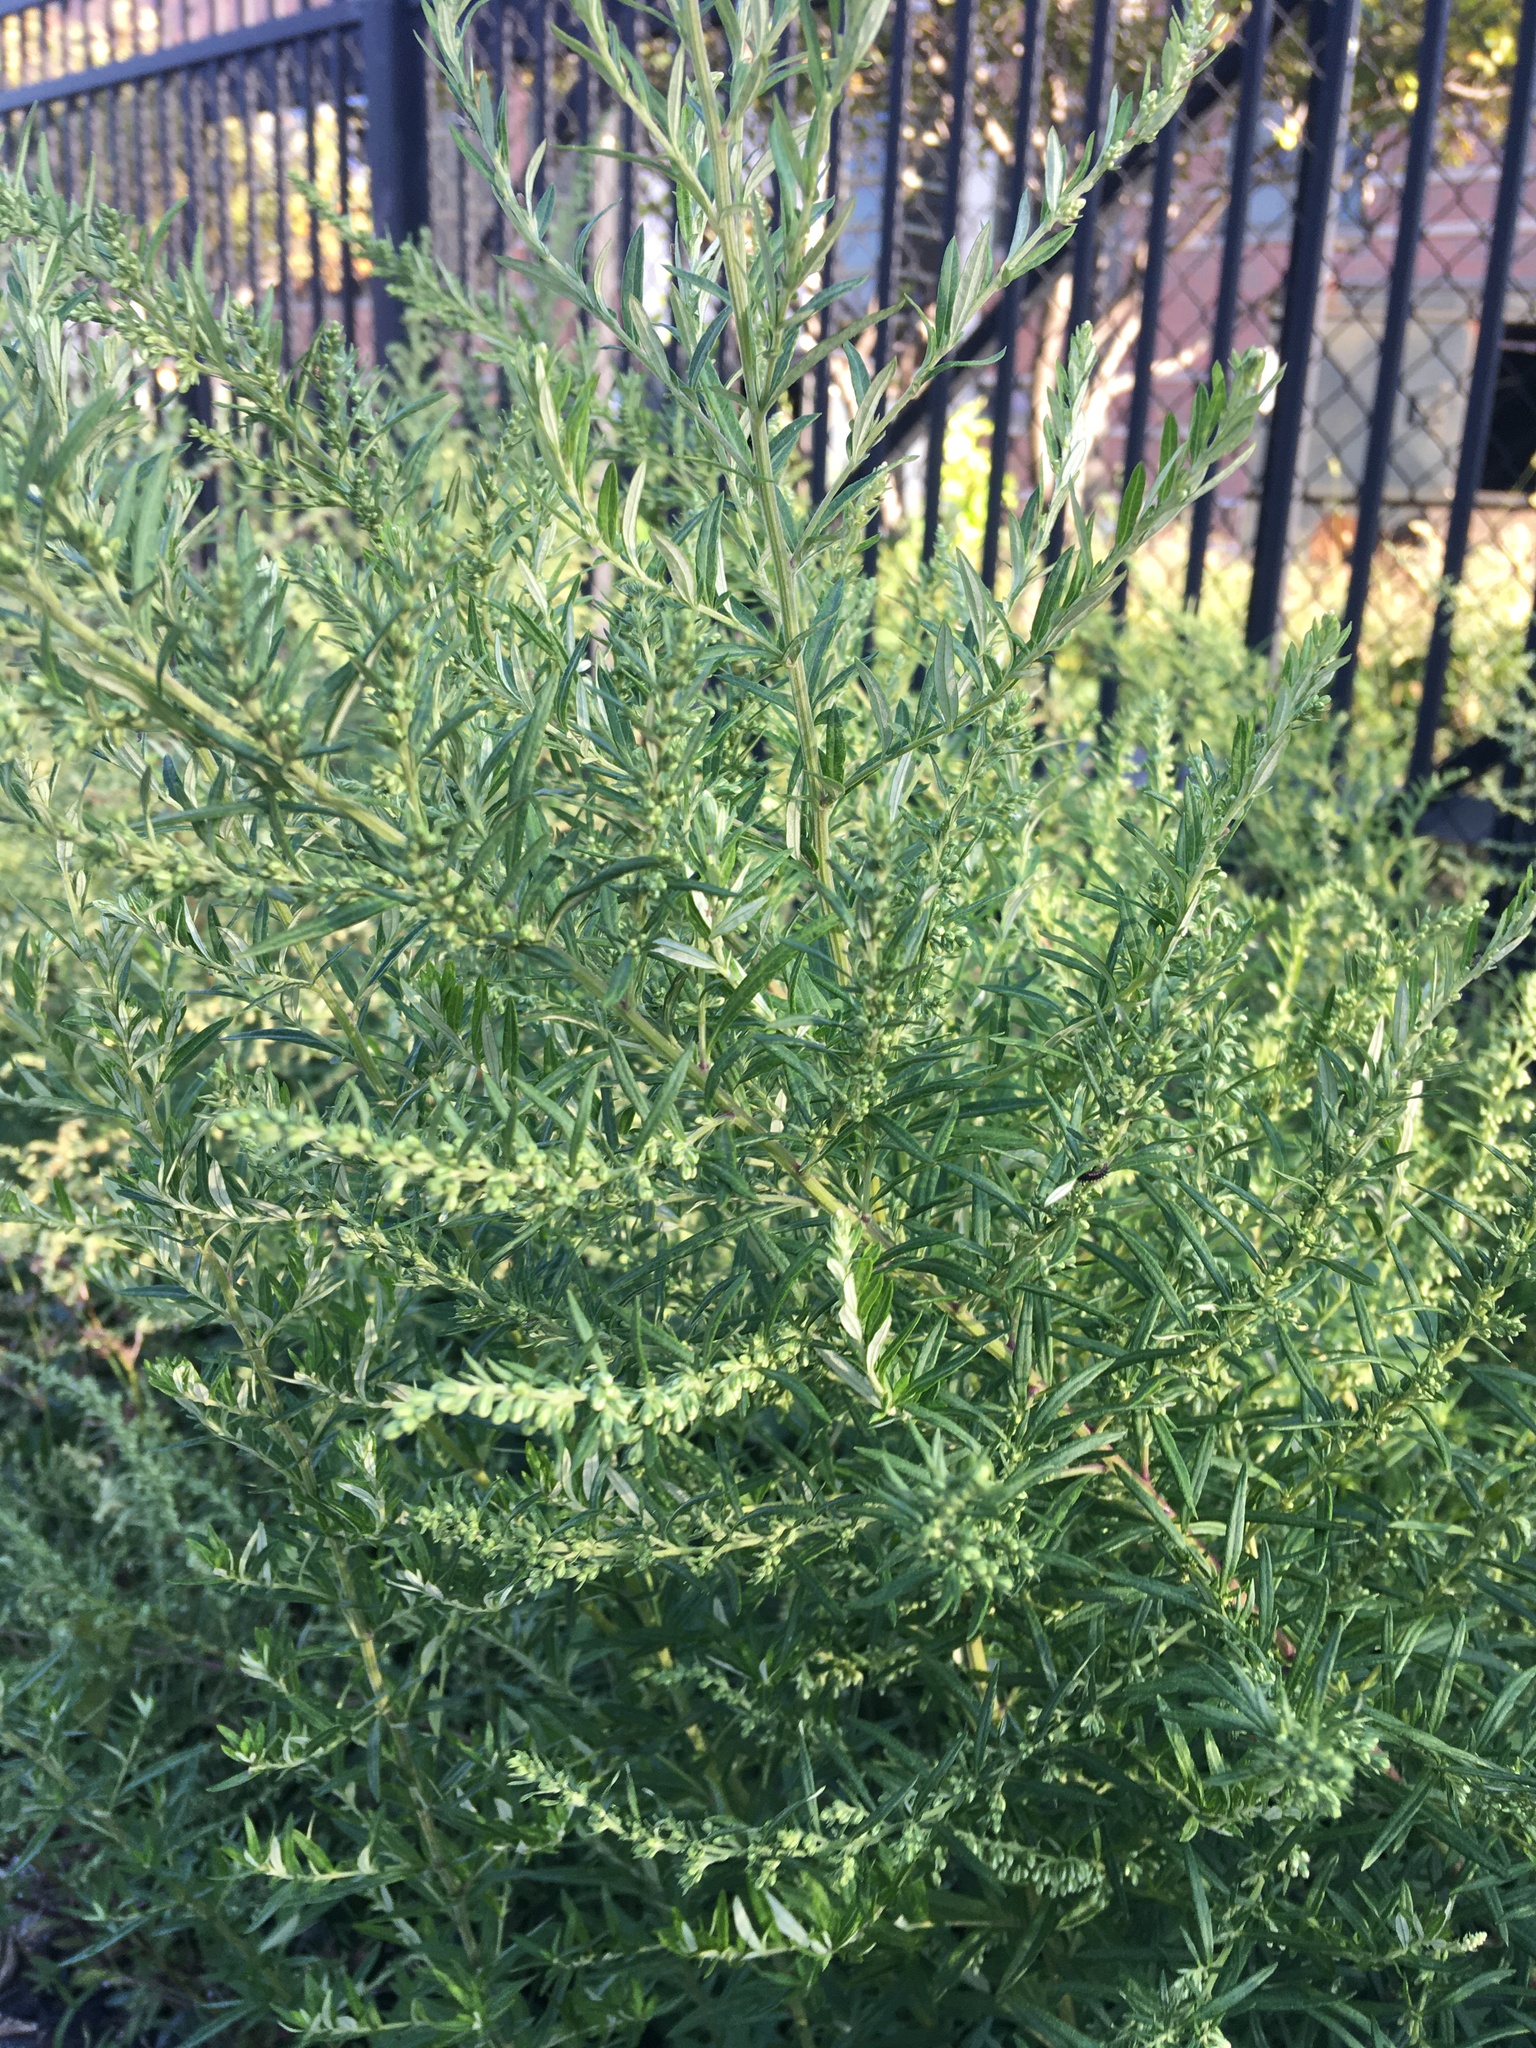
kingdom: Plantae
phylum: Tracheophyta
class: Magnoliopsida
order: Asterales
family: Asteraceae
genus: Artemisia
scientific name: Artemisia vulgaris
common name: Mugwort
